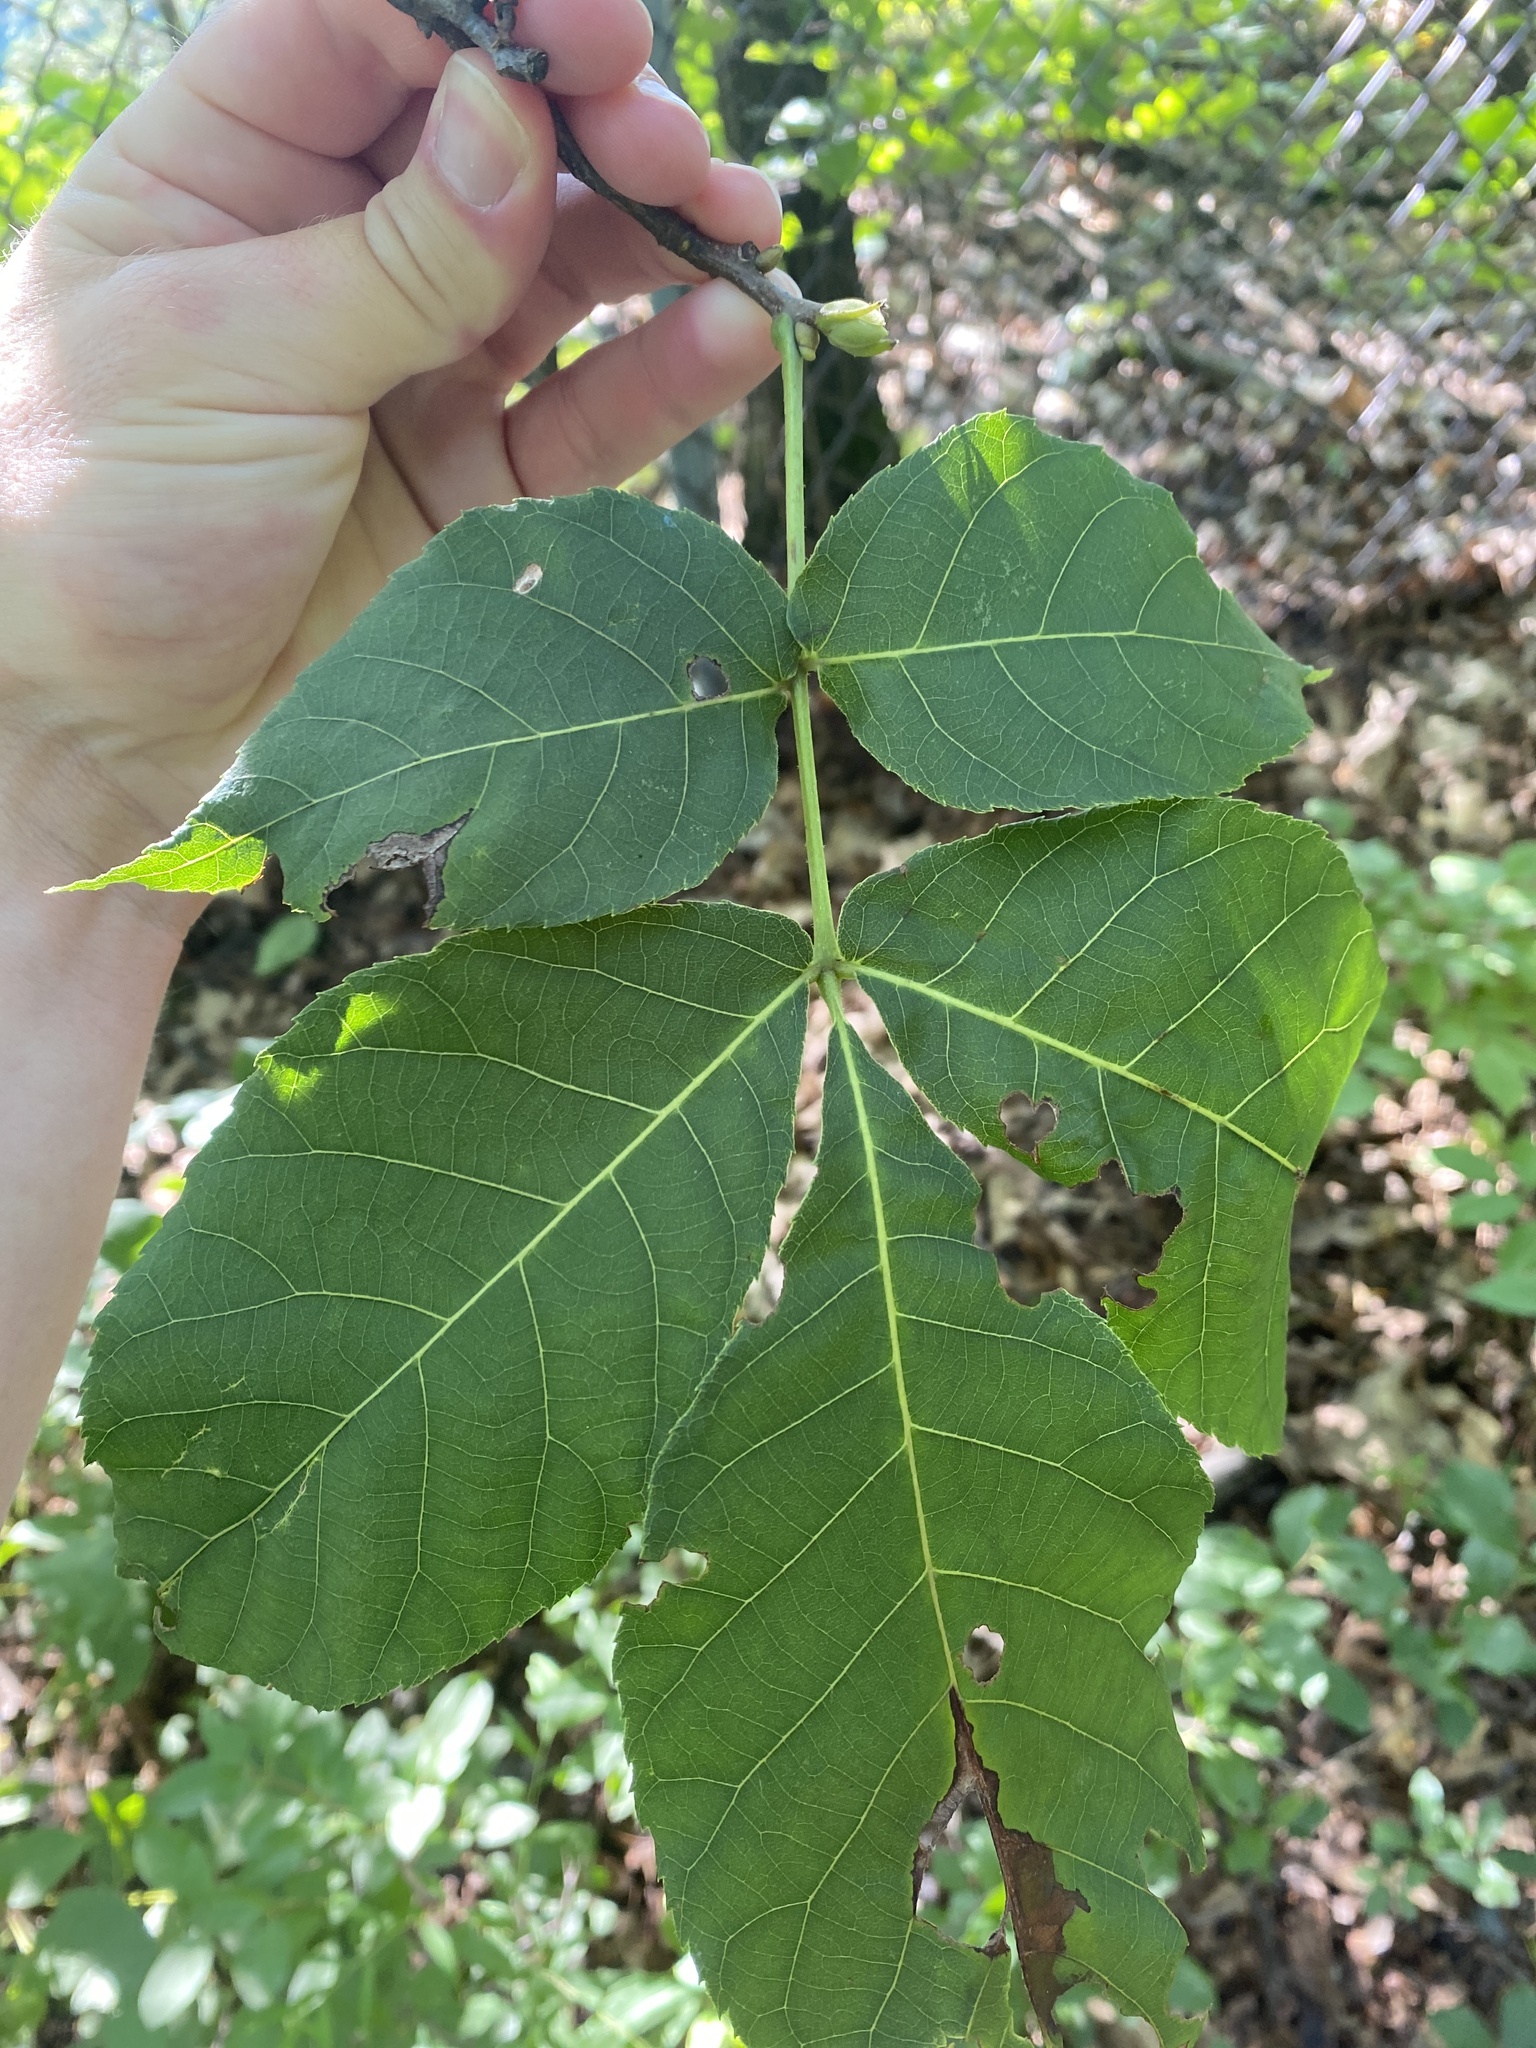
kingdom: Plantae
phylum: Tracheophyta
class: Magnoliopsida
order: Fagales
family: Juglandaceae
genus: Carya
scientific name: Carya glabra
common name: Pignut hickory
